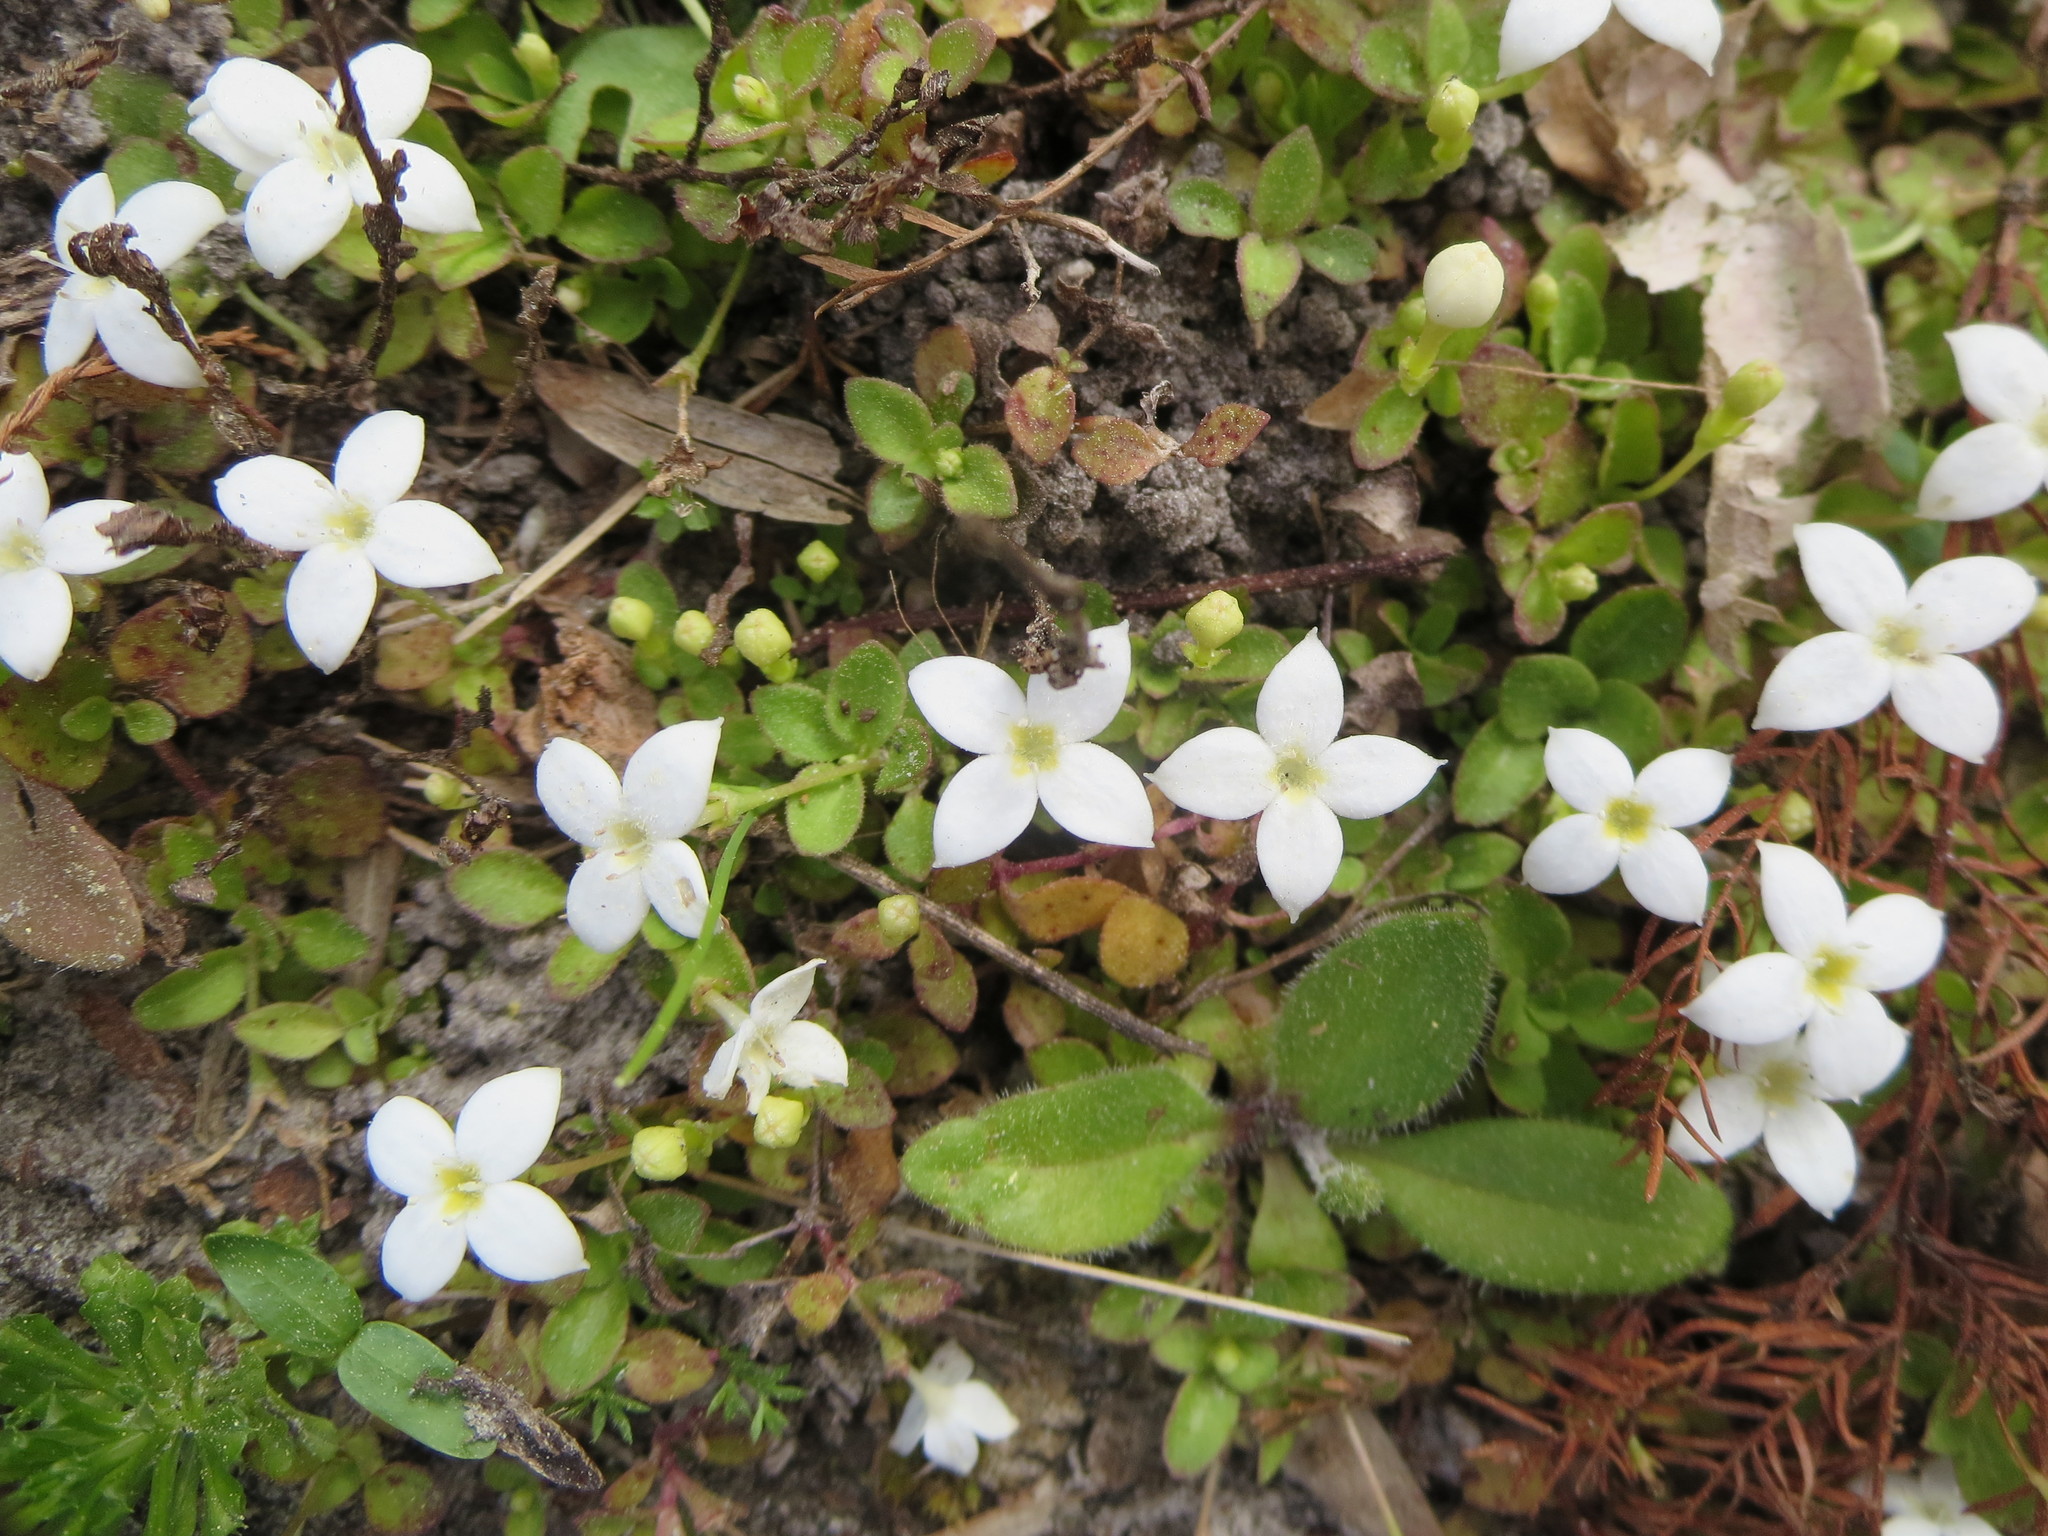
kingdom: Plantae
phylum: Tracheophyta
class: Magnoliopsida
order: Gentianales
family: Rubiaceae
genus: Houstonia
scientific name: Houstonia procumbens
